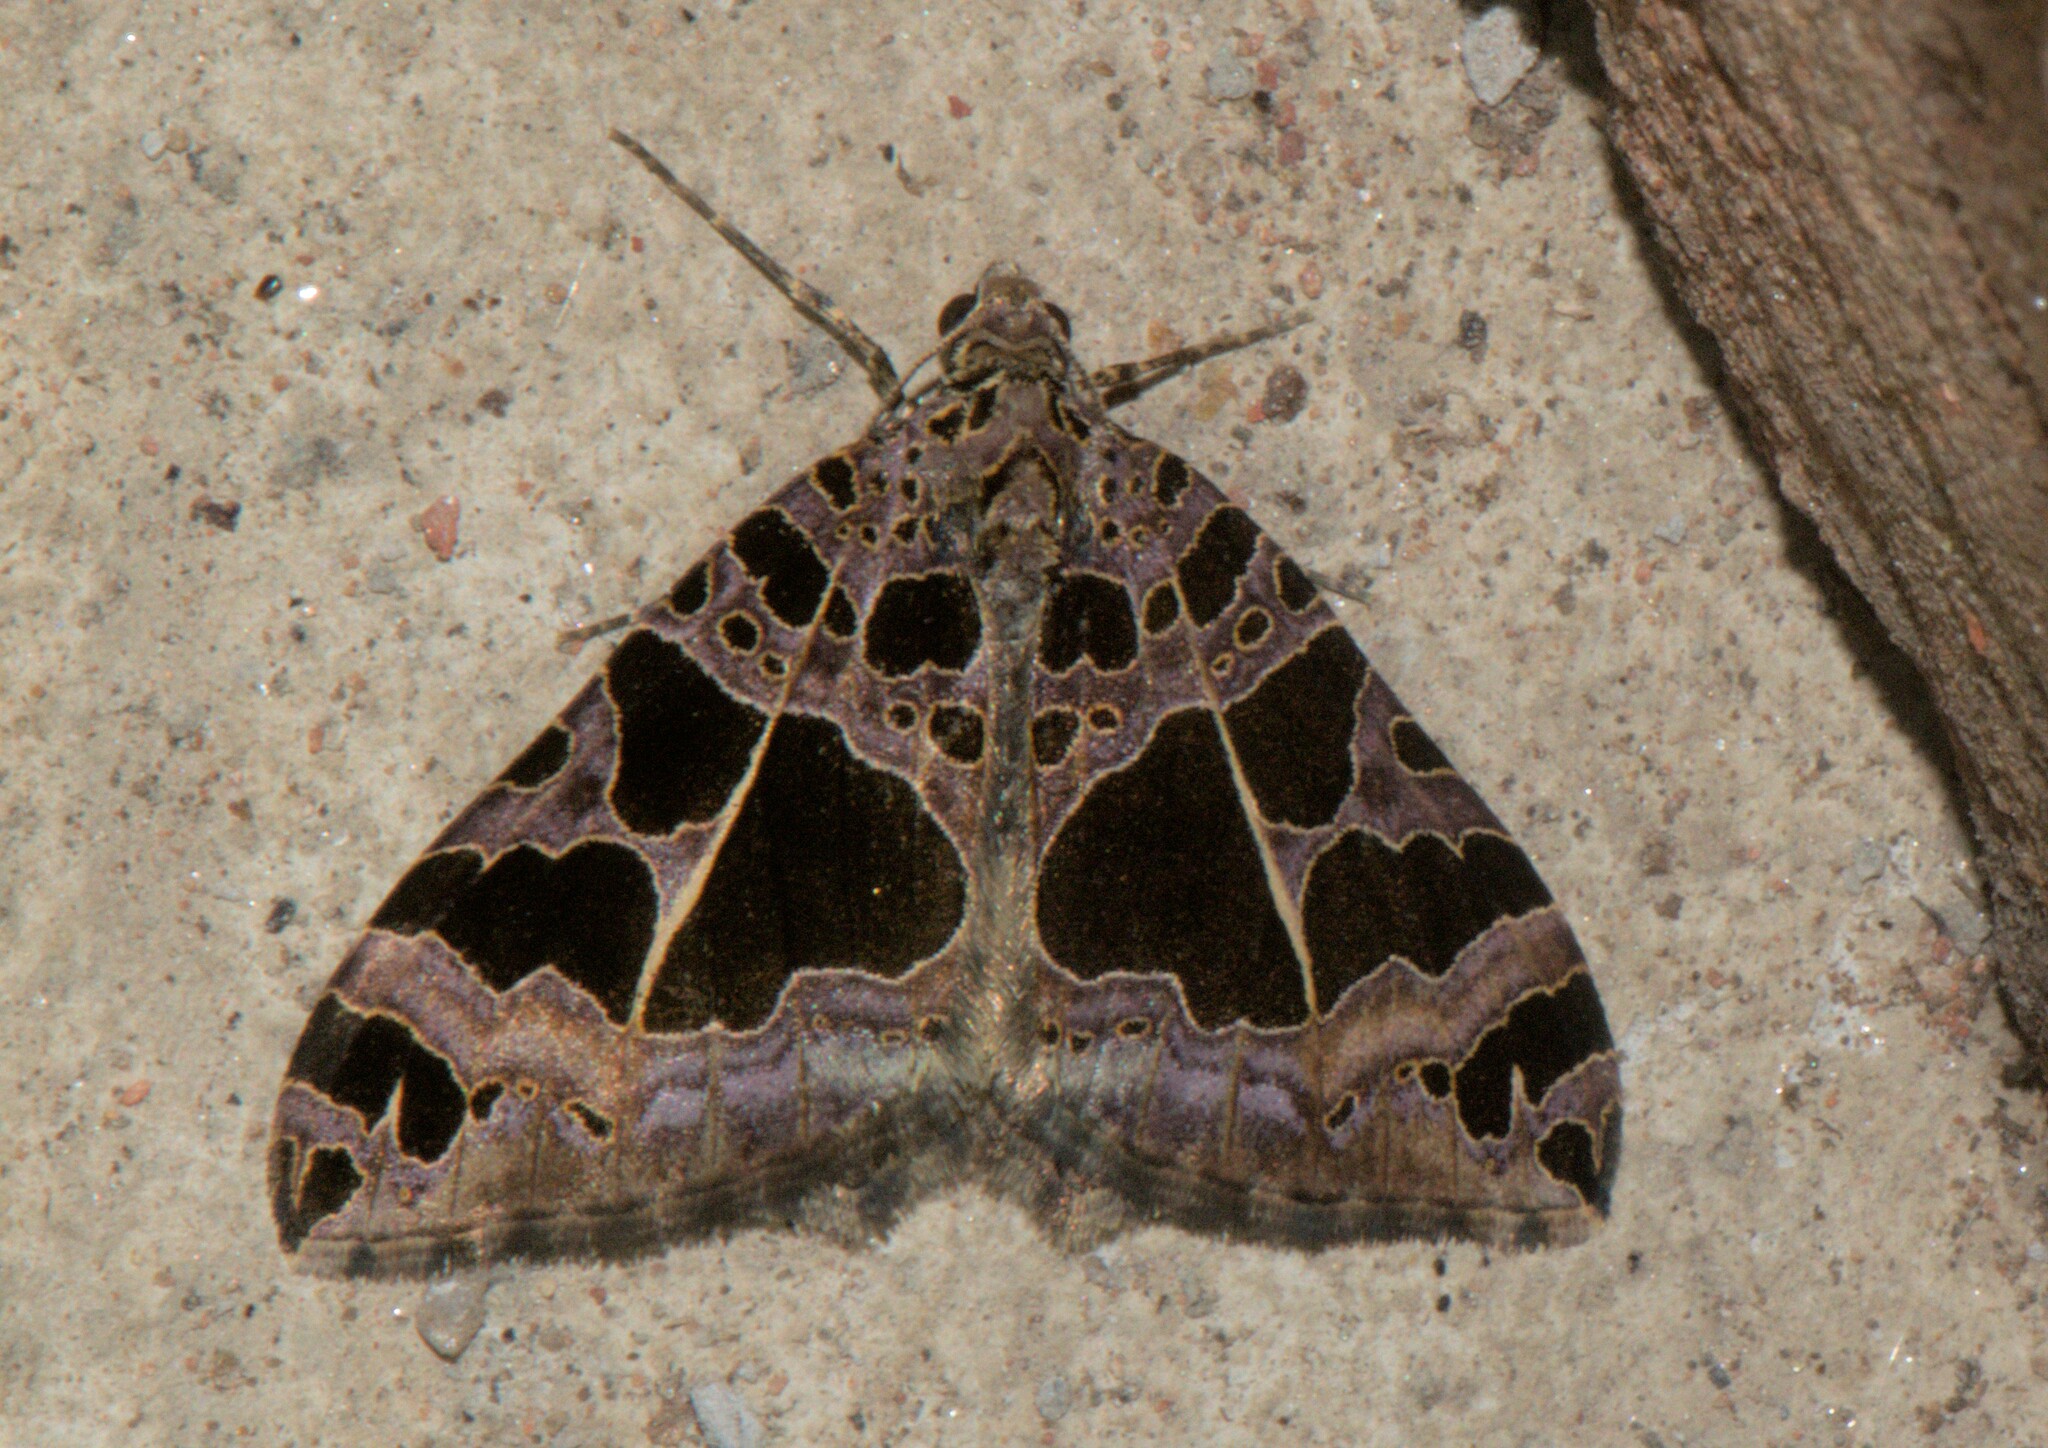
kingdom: Animalia
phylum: Arthropoda
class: Insecta
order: Lepidoptera
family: Geometridae
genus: Hysterura
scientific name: Hysterura multifaria
